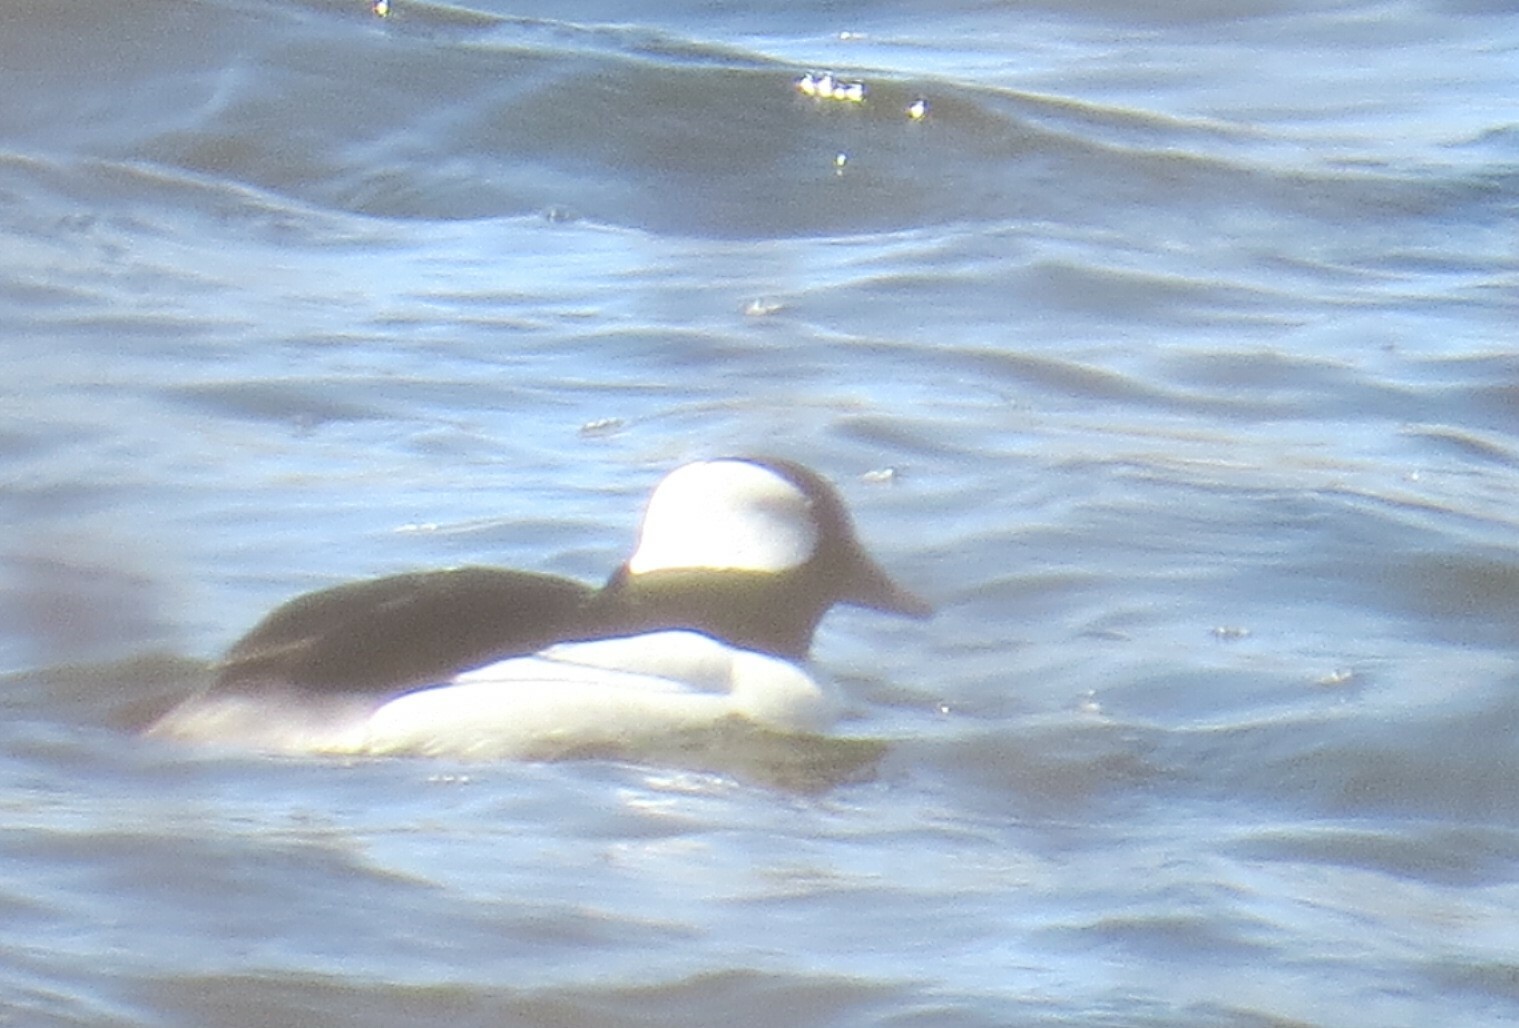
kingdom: Animalia
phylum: Chordata
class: Aves
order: Anseriformes
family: Anatidae
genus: Bucephala
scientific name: Bucephala albeola
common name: Bufflehead
